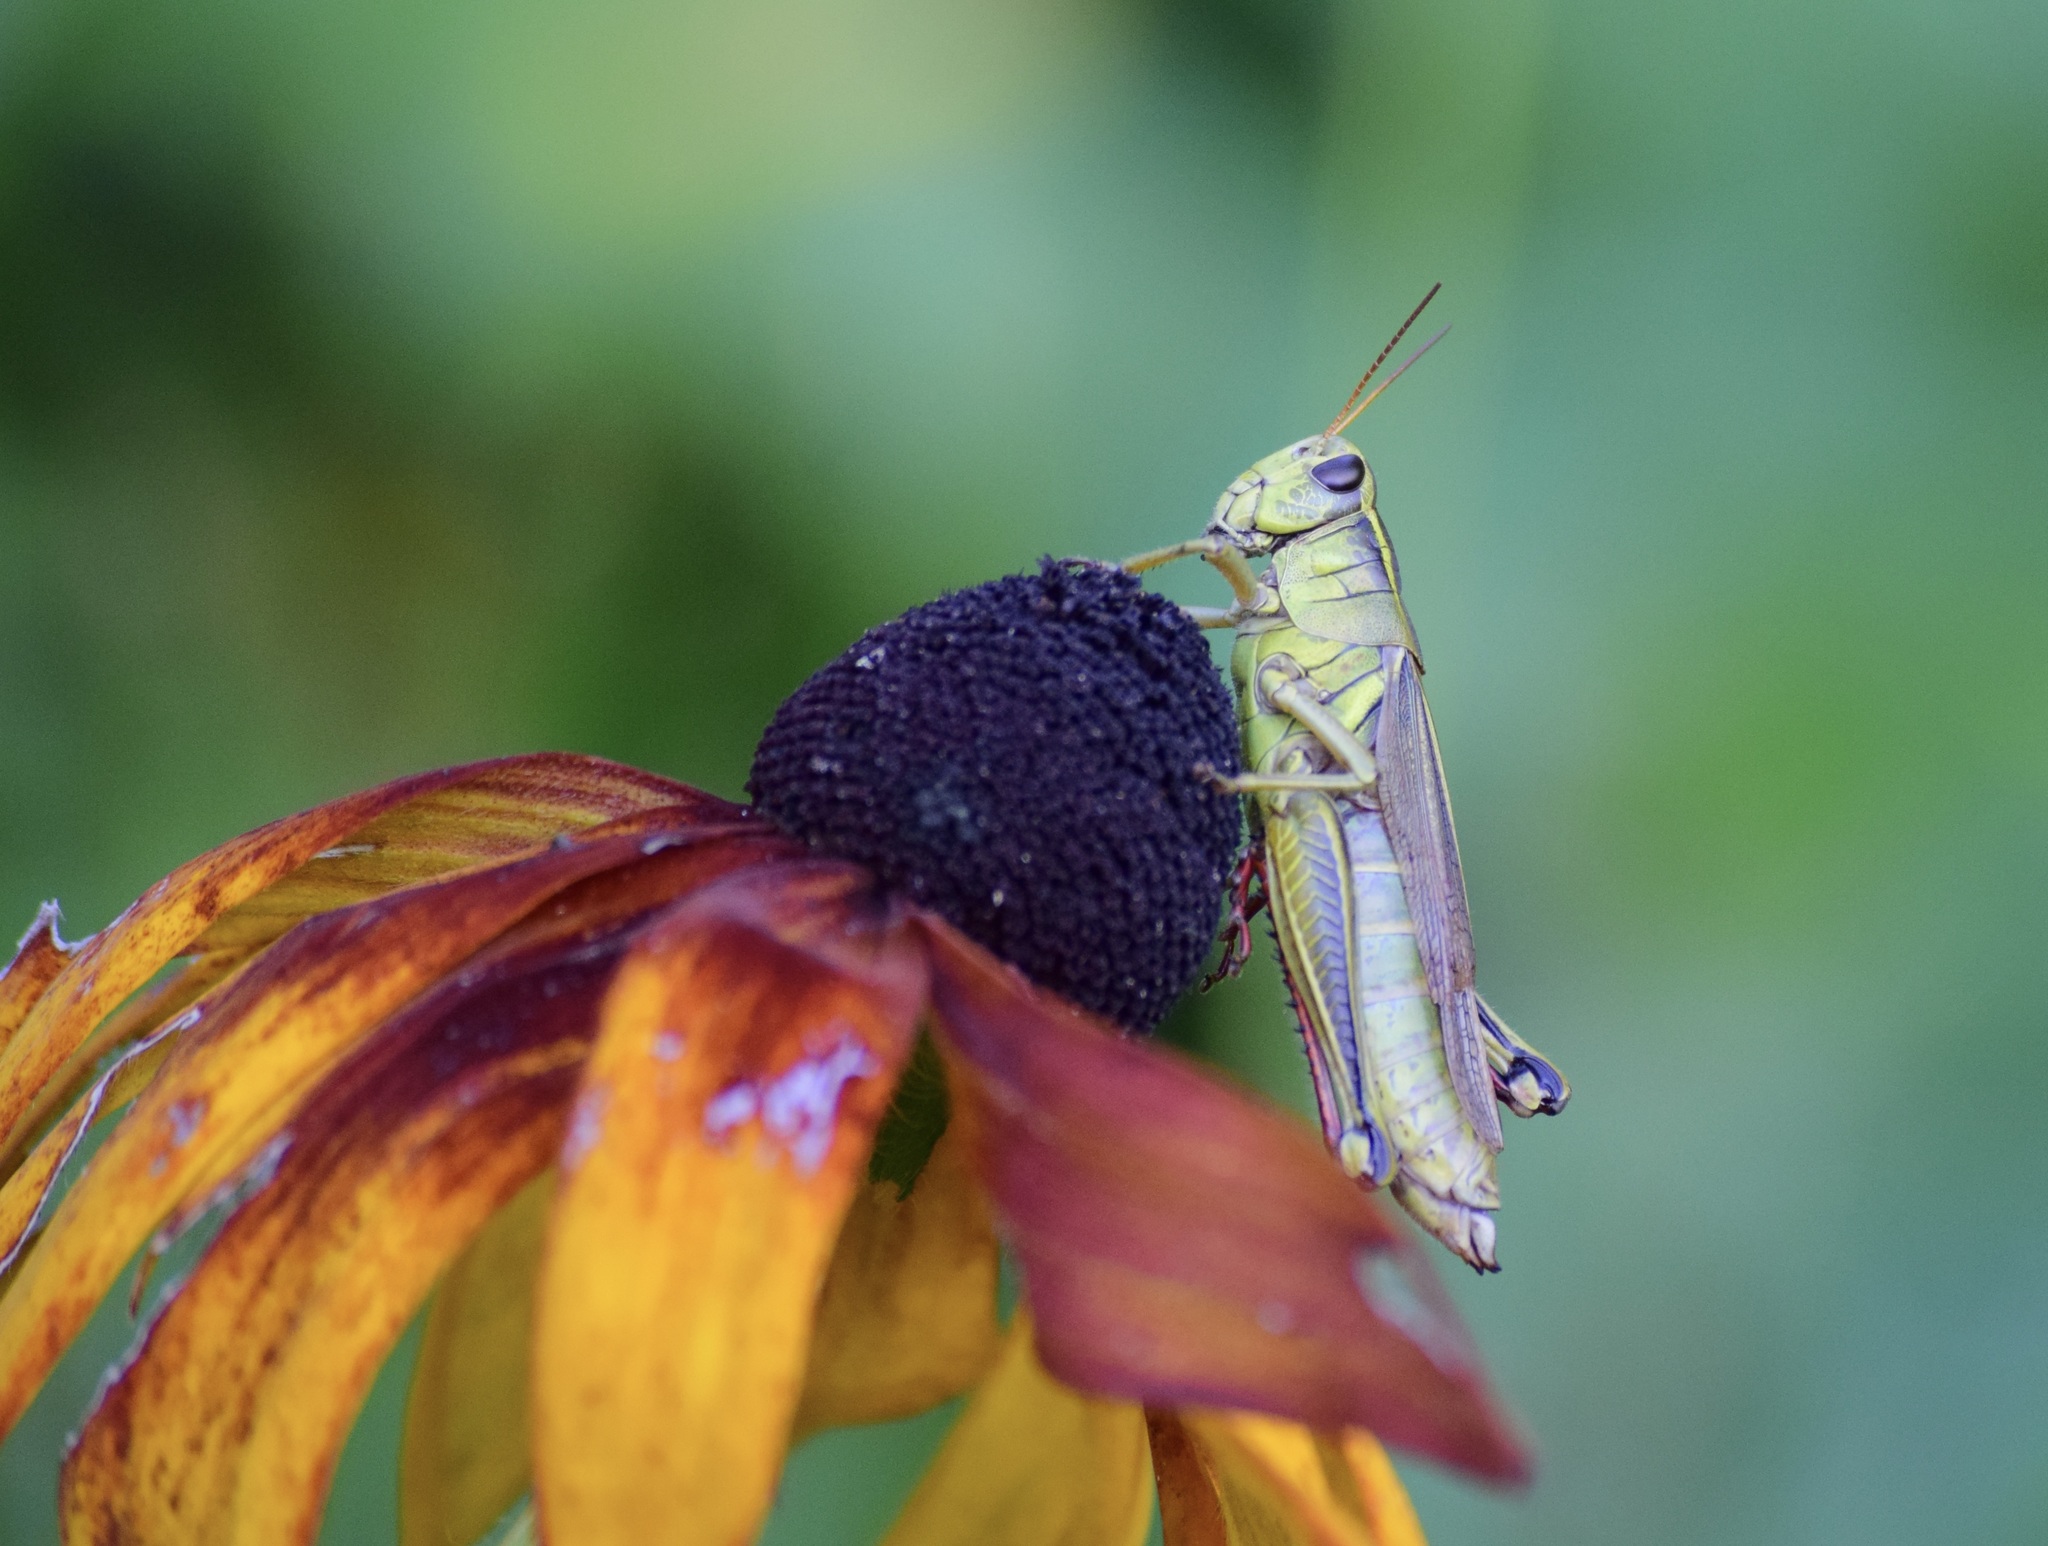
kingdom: Animalia
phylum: Arthropoda
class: Insecta
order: Orthoptera
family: Acrididae
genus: Melanoplus
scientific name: Melanoplus bivittatus
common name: Two-striped grasshopper
